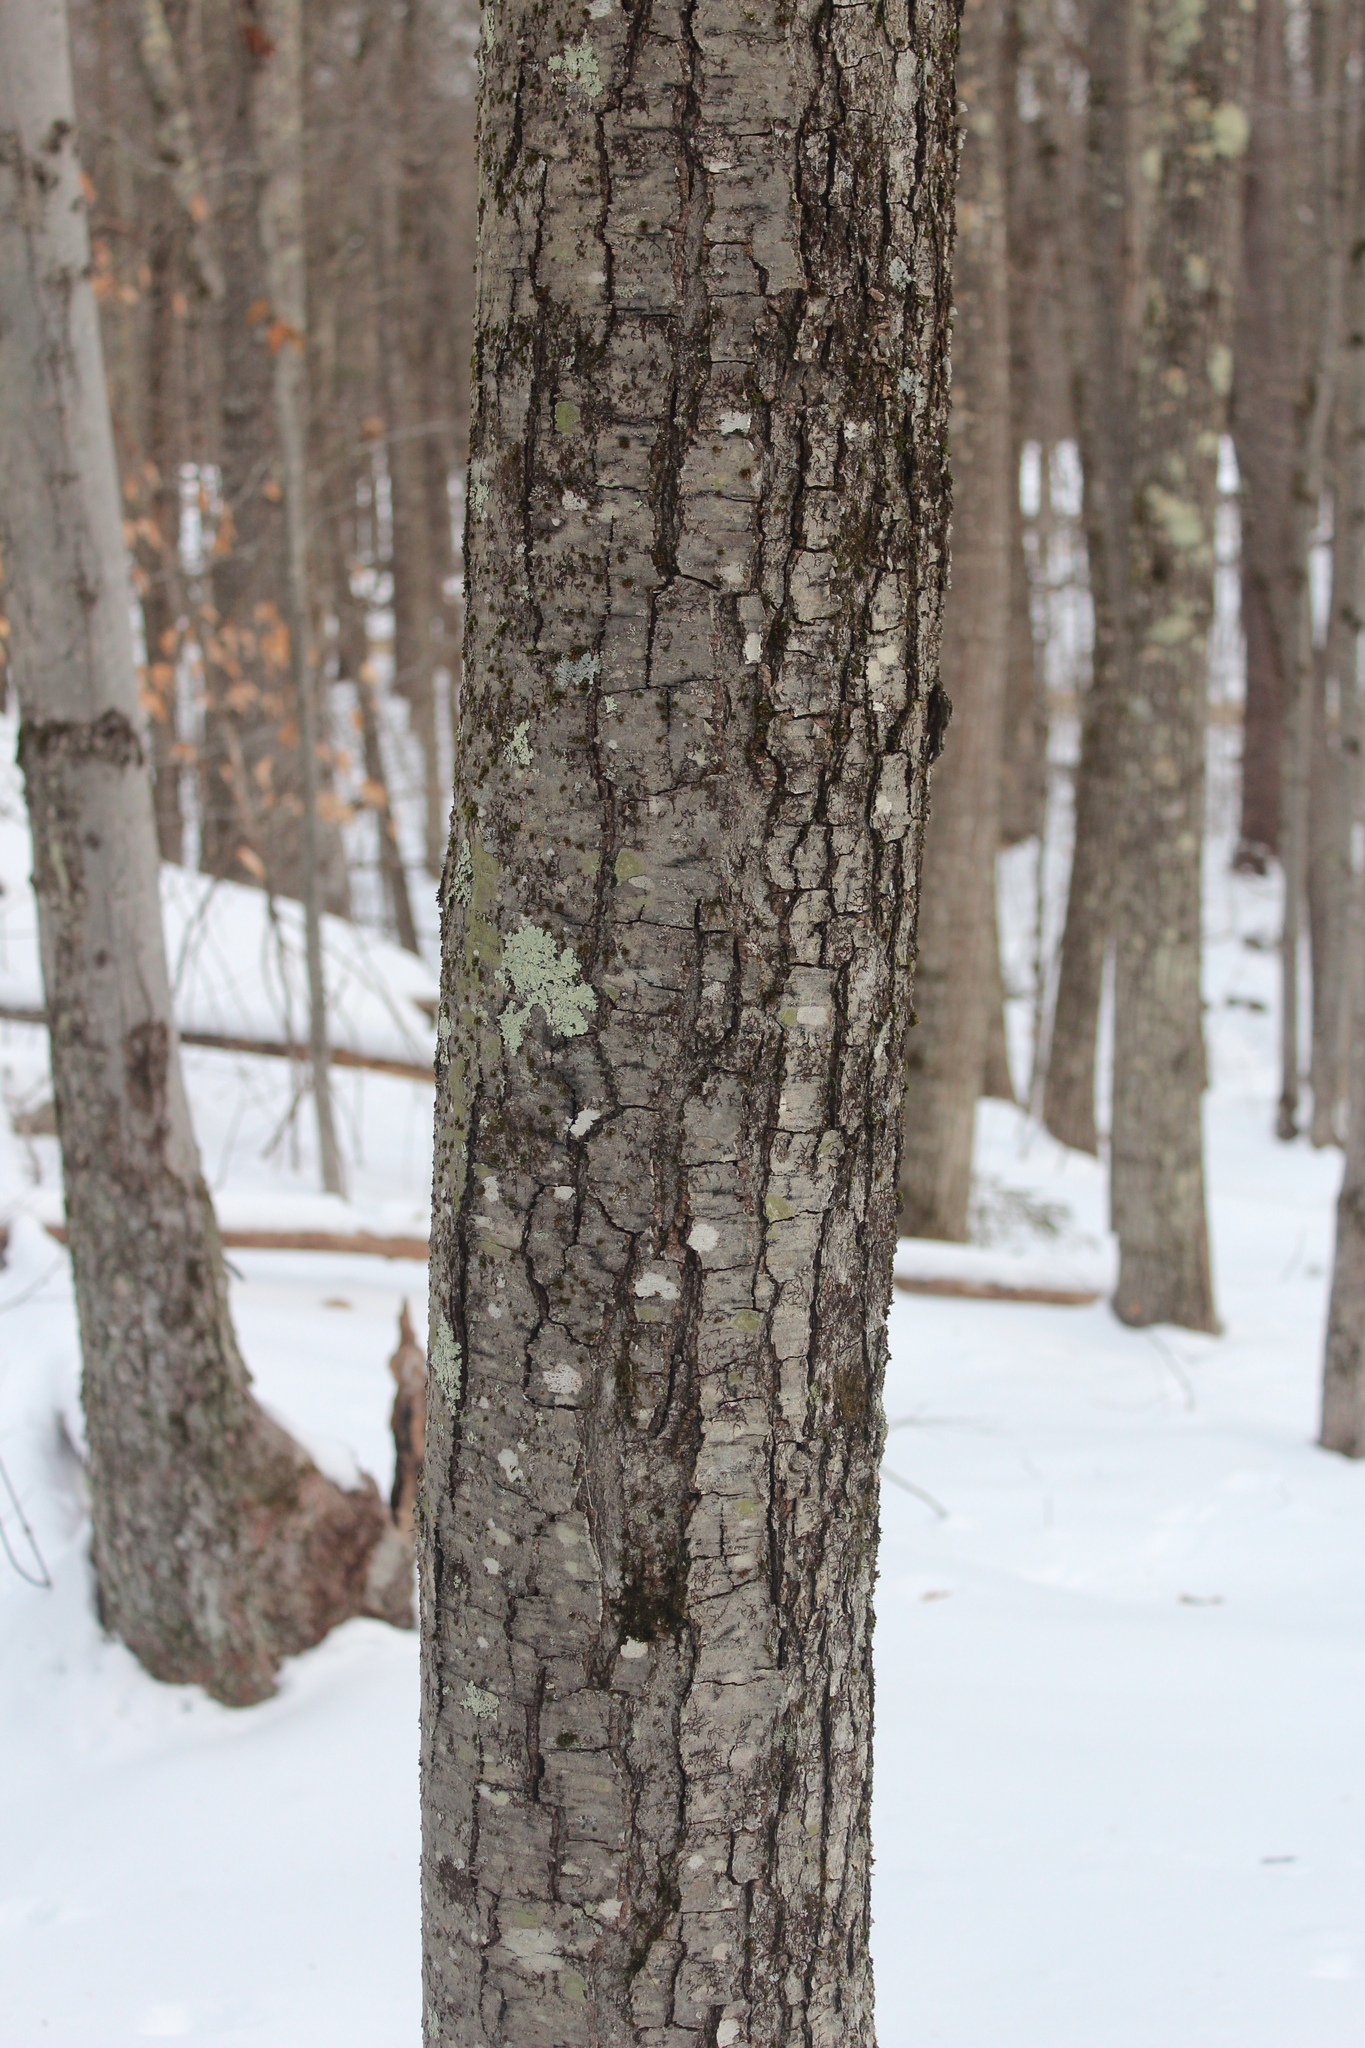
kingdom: Plantae
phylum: Tracheophyta
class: Magnoliopsida
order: Fagales
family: Betulaceae
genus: Betula
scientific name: Betula lenta
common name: Black birch
